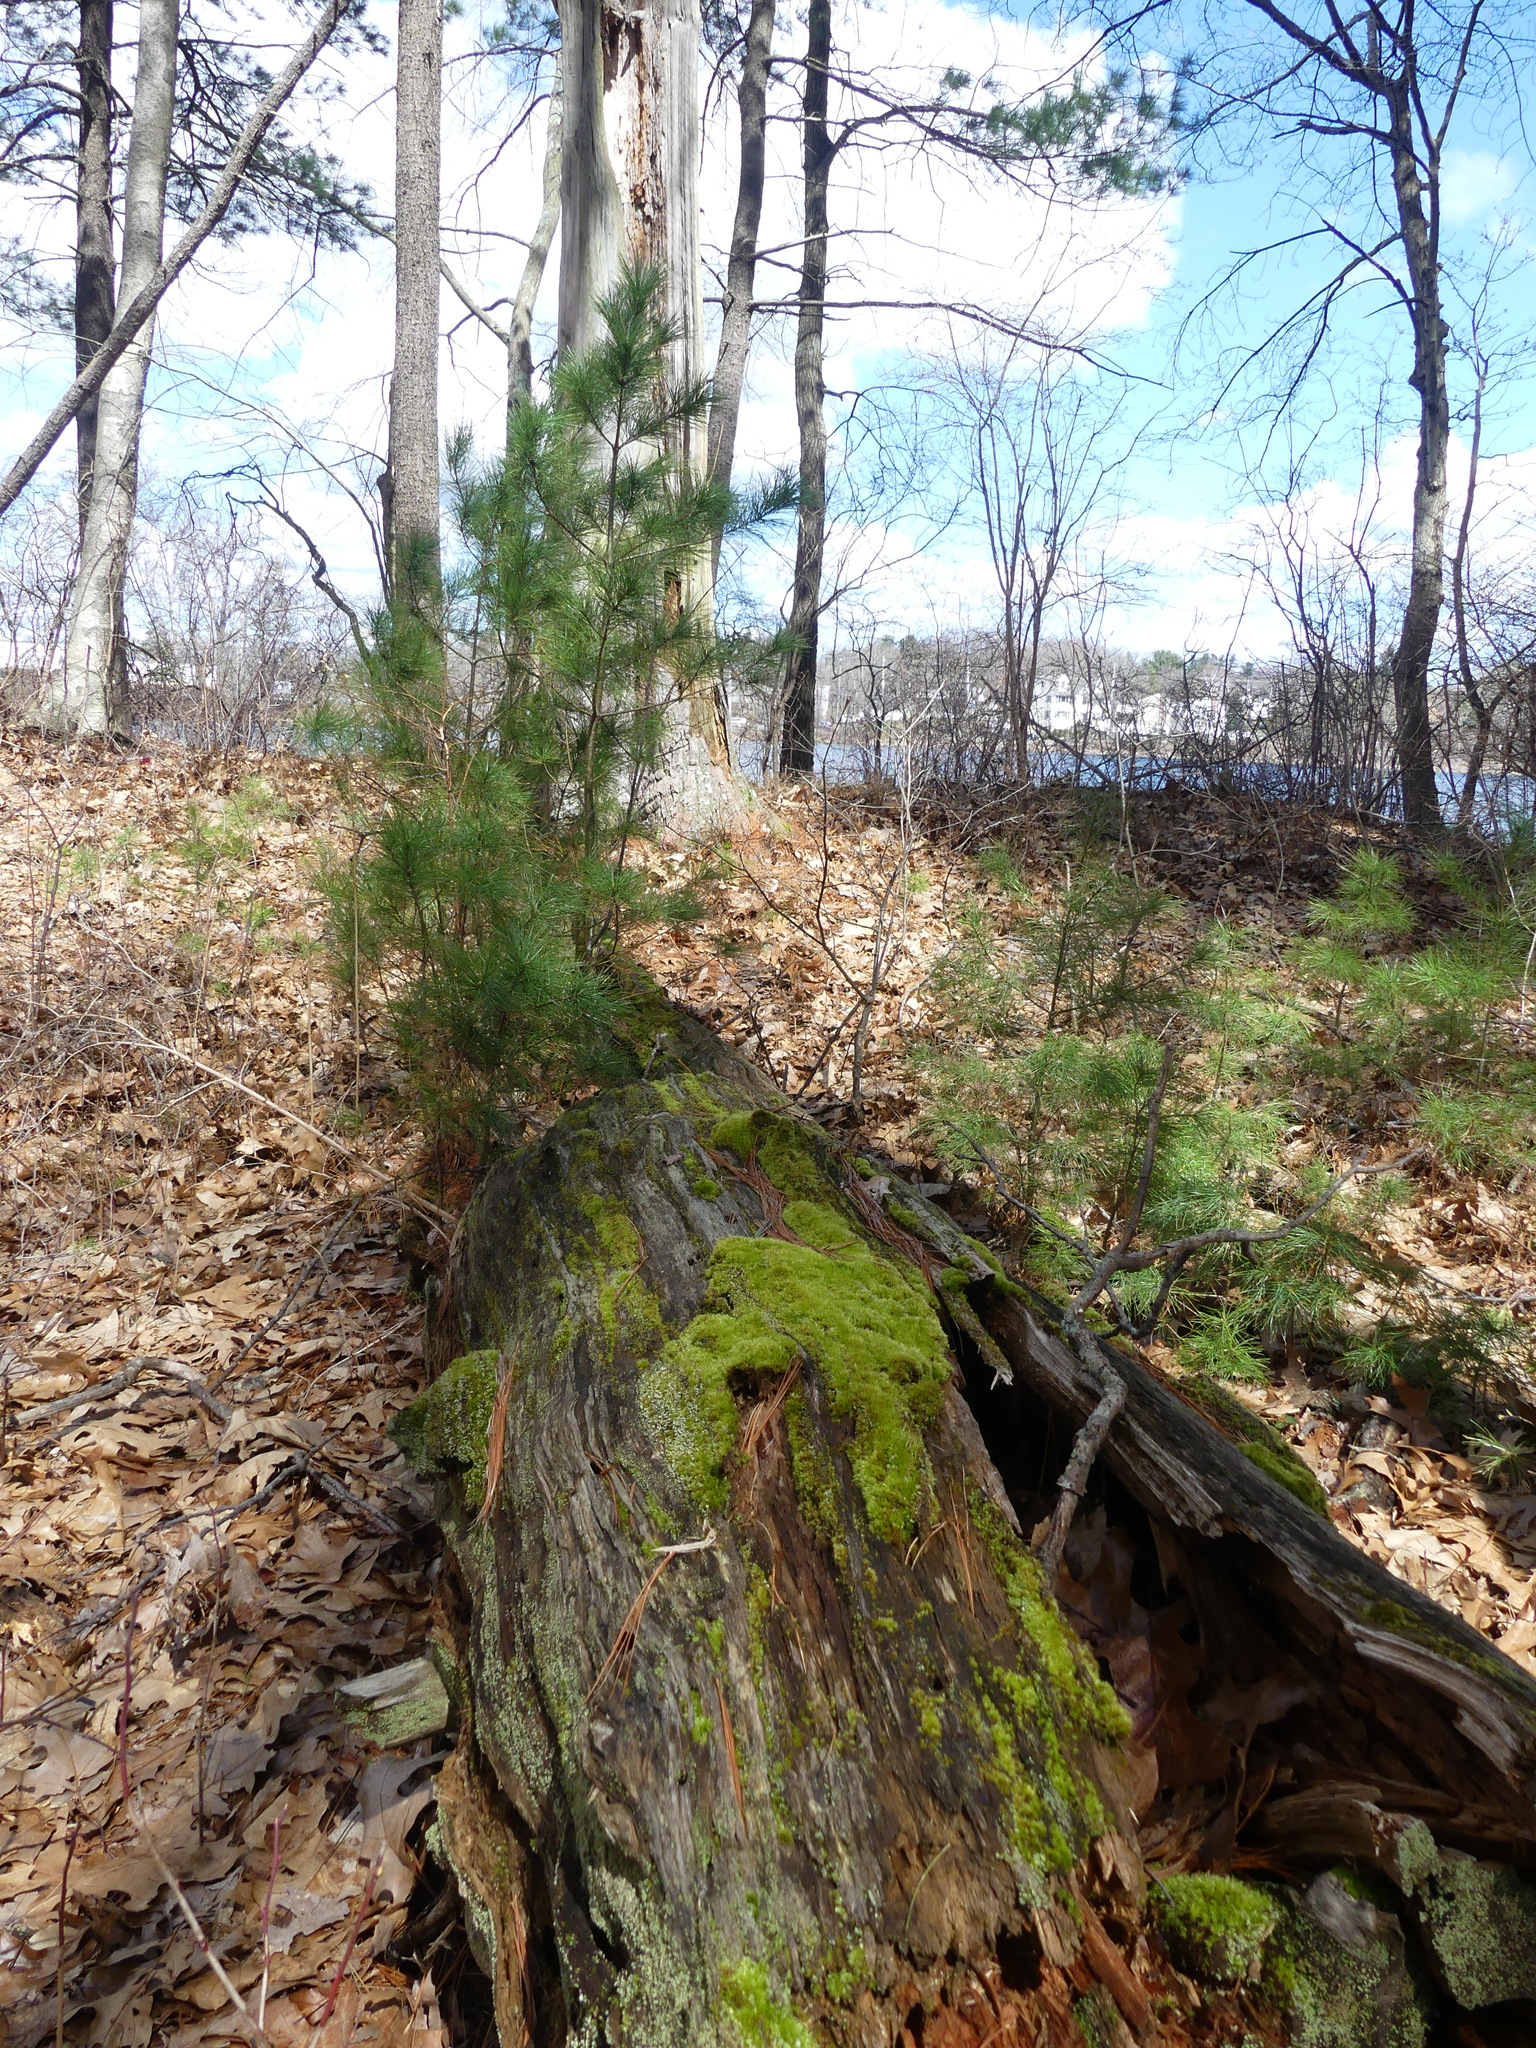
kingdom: Plantae
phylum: Tracheophyta
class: Pinopsida
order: Pinales
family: Pinaceae
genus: Pinus
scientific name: Pinus strobus
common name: Weymouth pine
